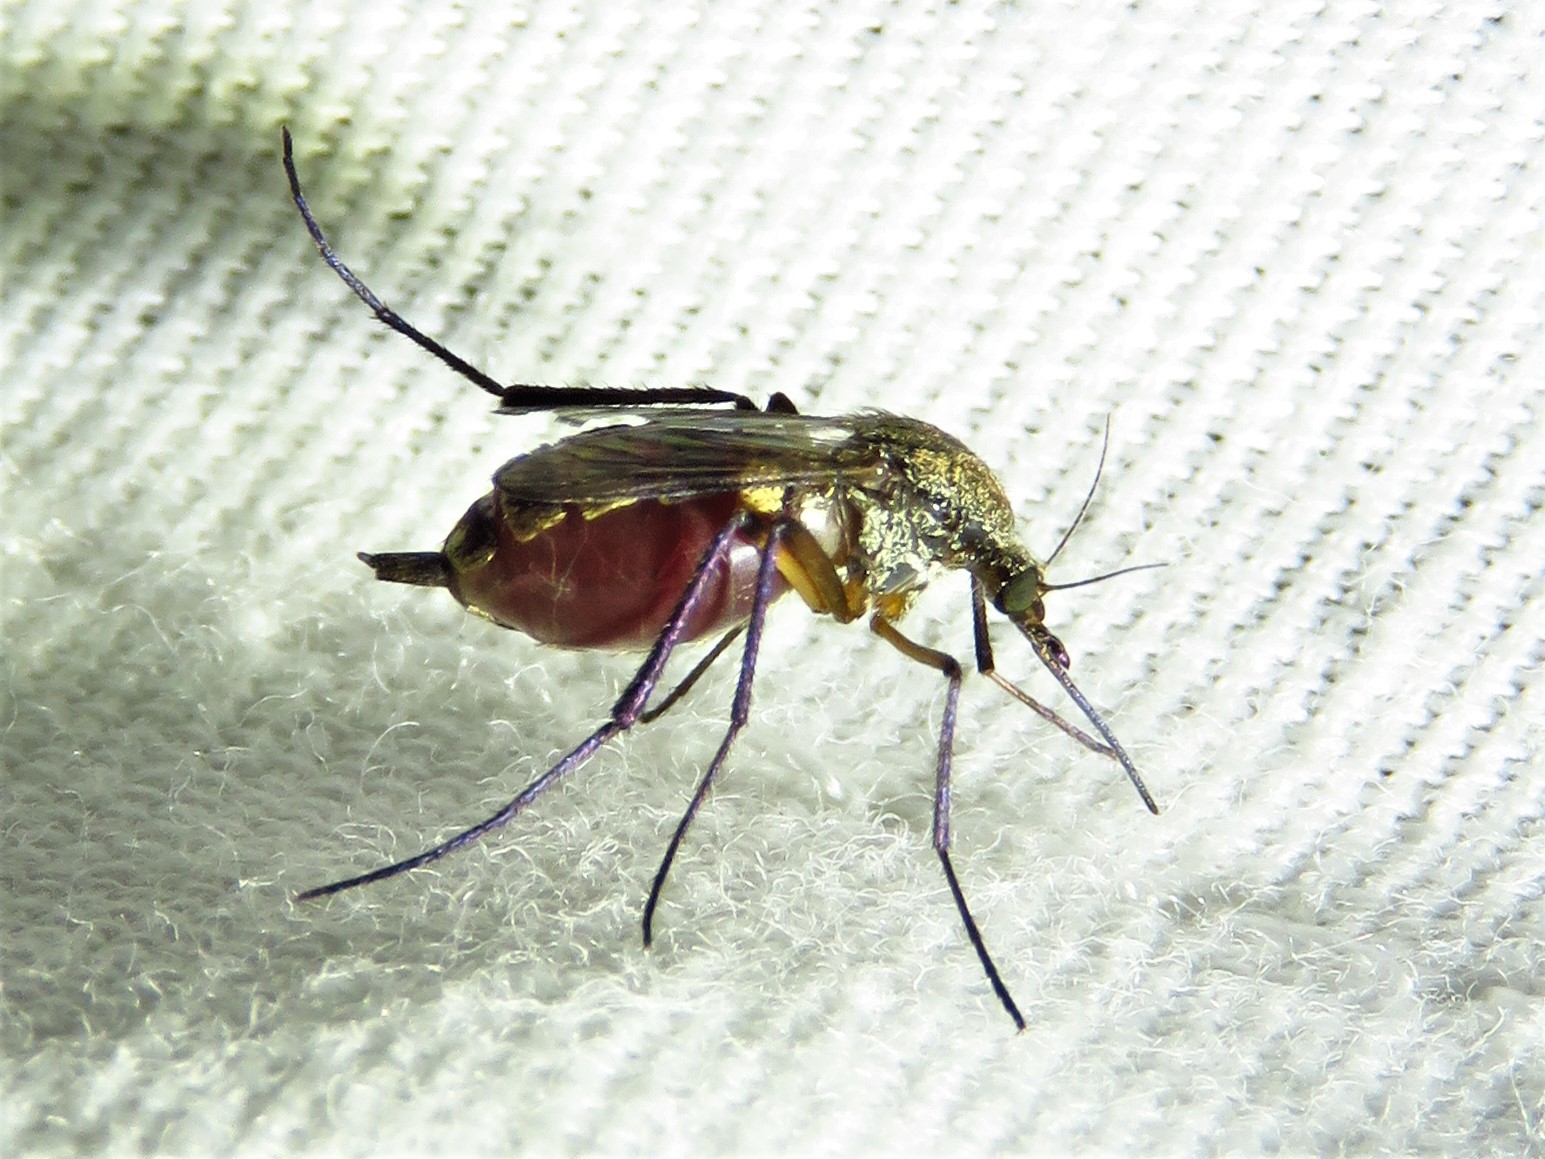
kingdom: Animalia
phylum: Arthropoda
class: Insecta
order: Diptera
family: Culicidae
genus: Psorophora
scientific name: Psorophora cyanescens
